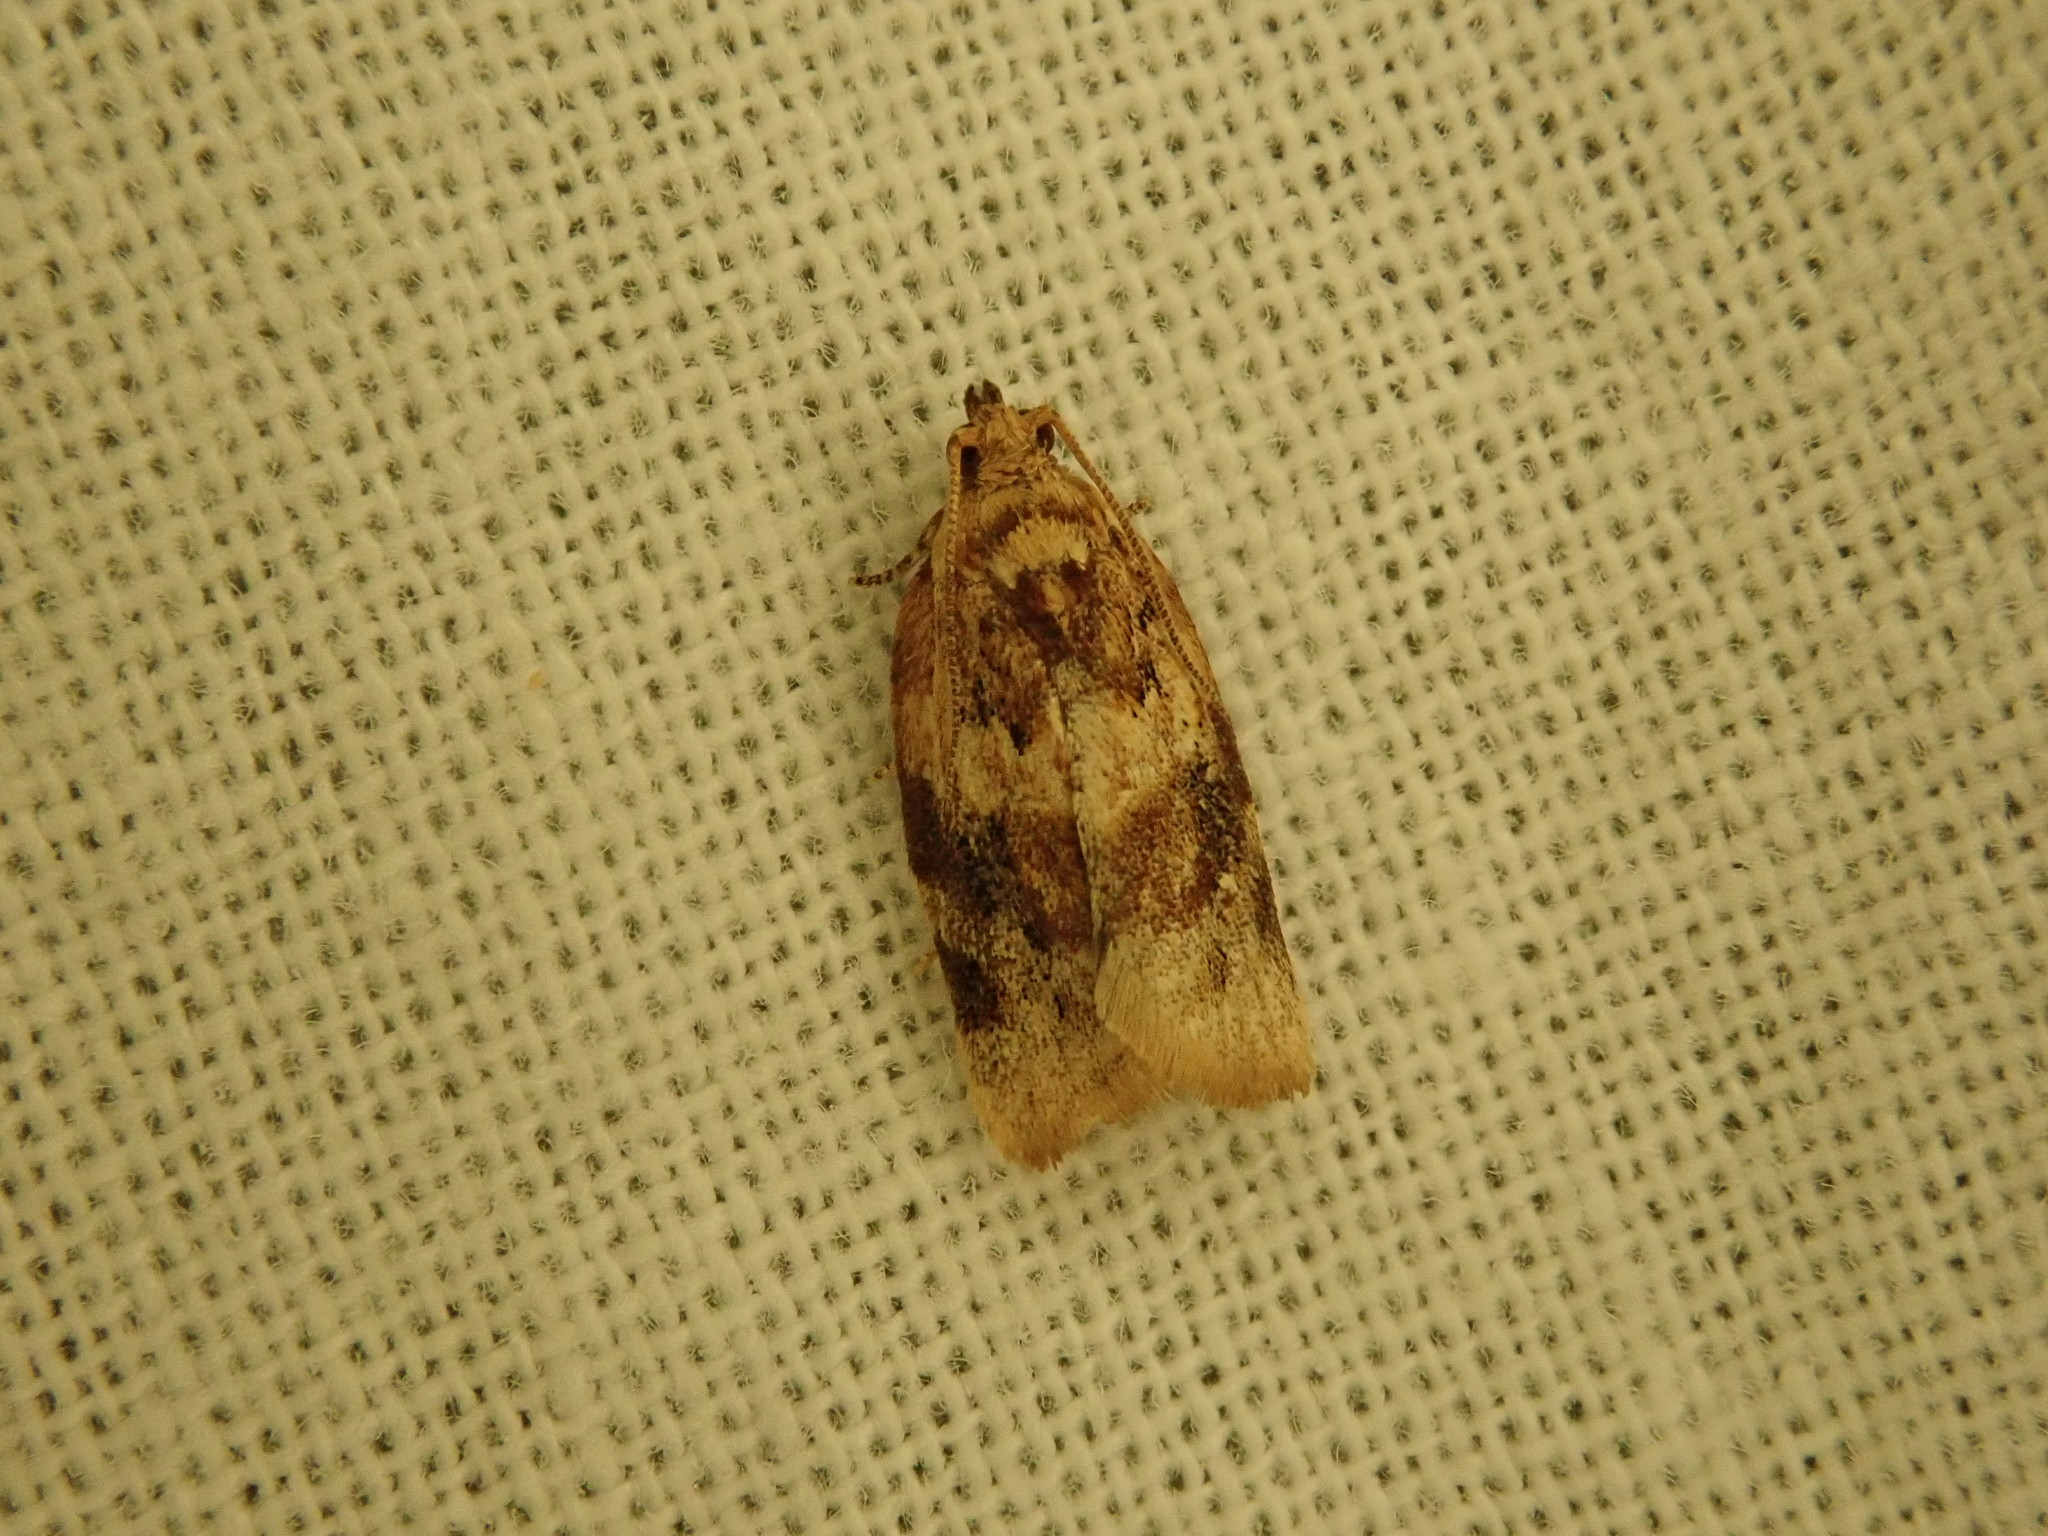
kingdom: Animalia
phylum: Arthropoda
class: Insecta
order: Lepidoptera
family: Tortricidae
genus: Argyrotaenia
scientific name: Argyrotaenia velutinana
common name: Red-banded leafroller moth
